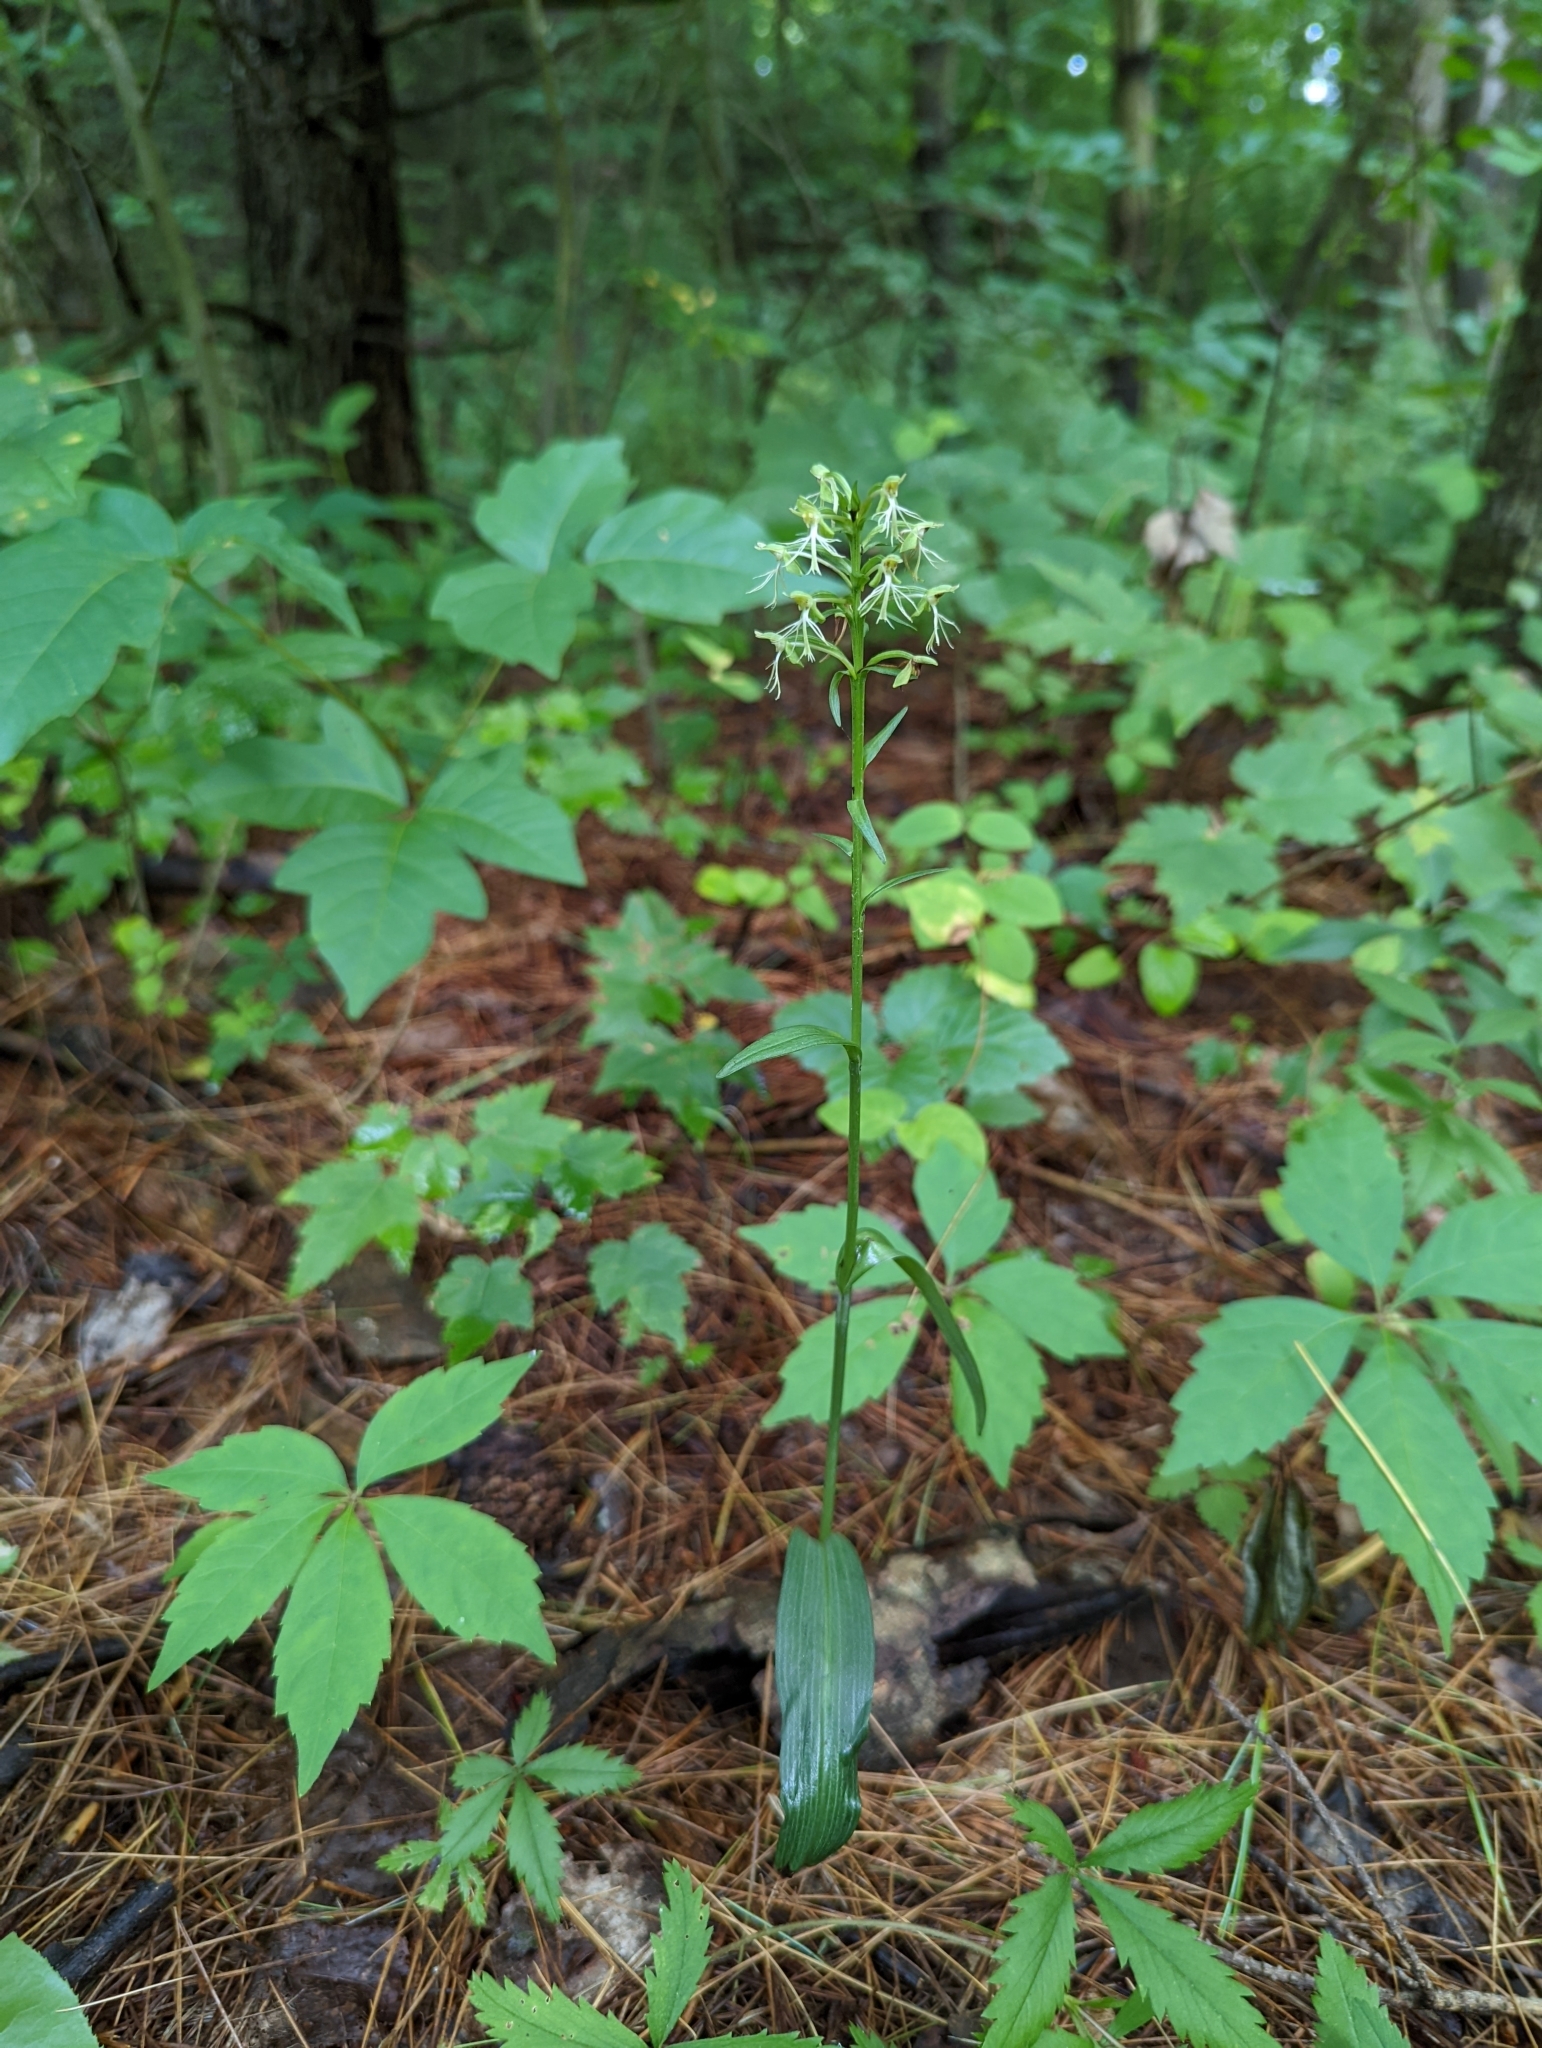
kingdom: Plantae
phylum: Tracheophyta
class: Liliopsida
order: Asparagales
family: Orchidaceae
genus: Platanthera
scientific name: Platanthera lacera
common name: Green fringed orchid
